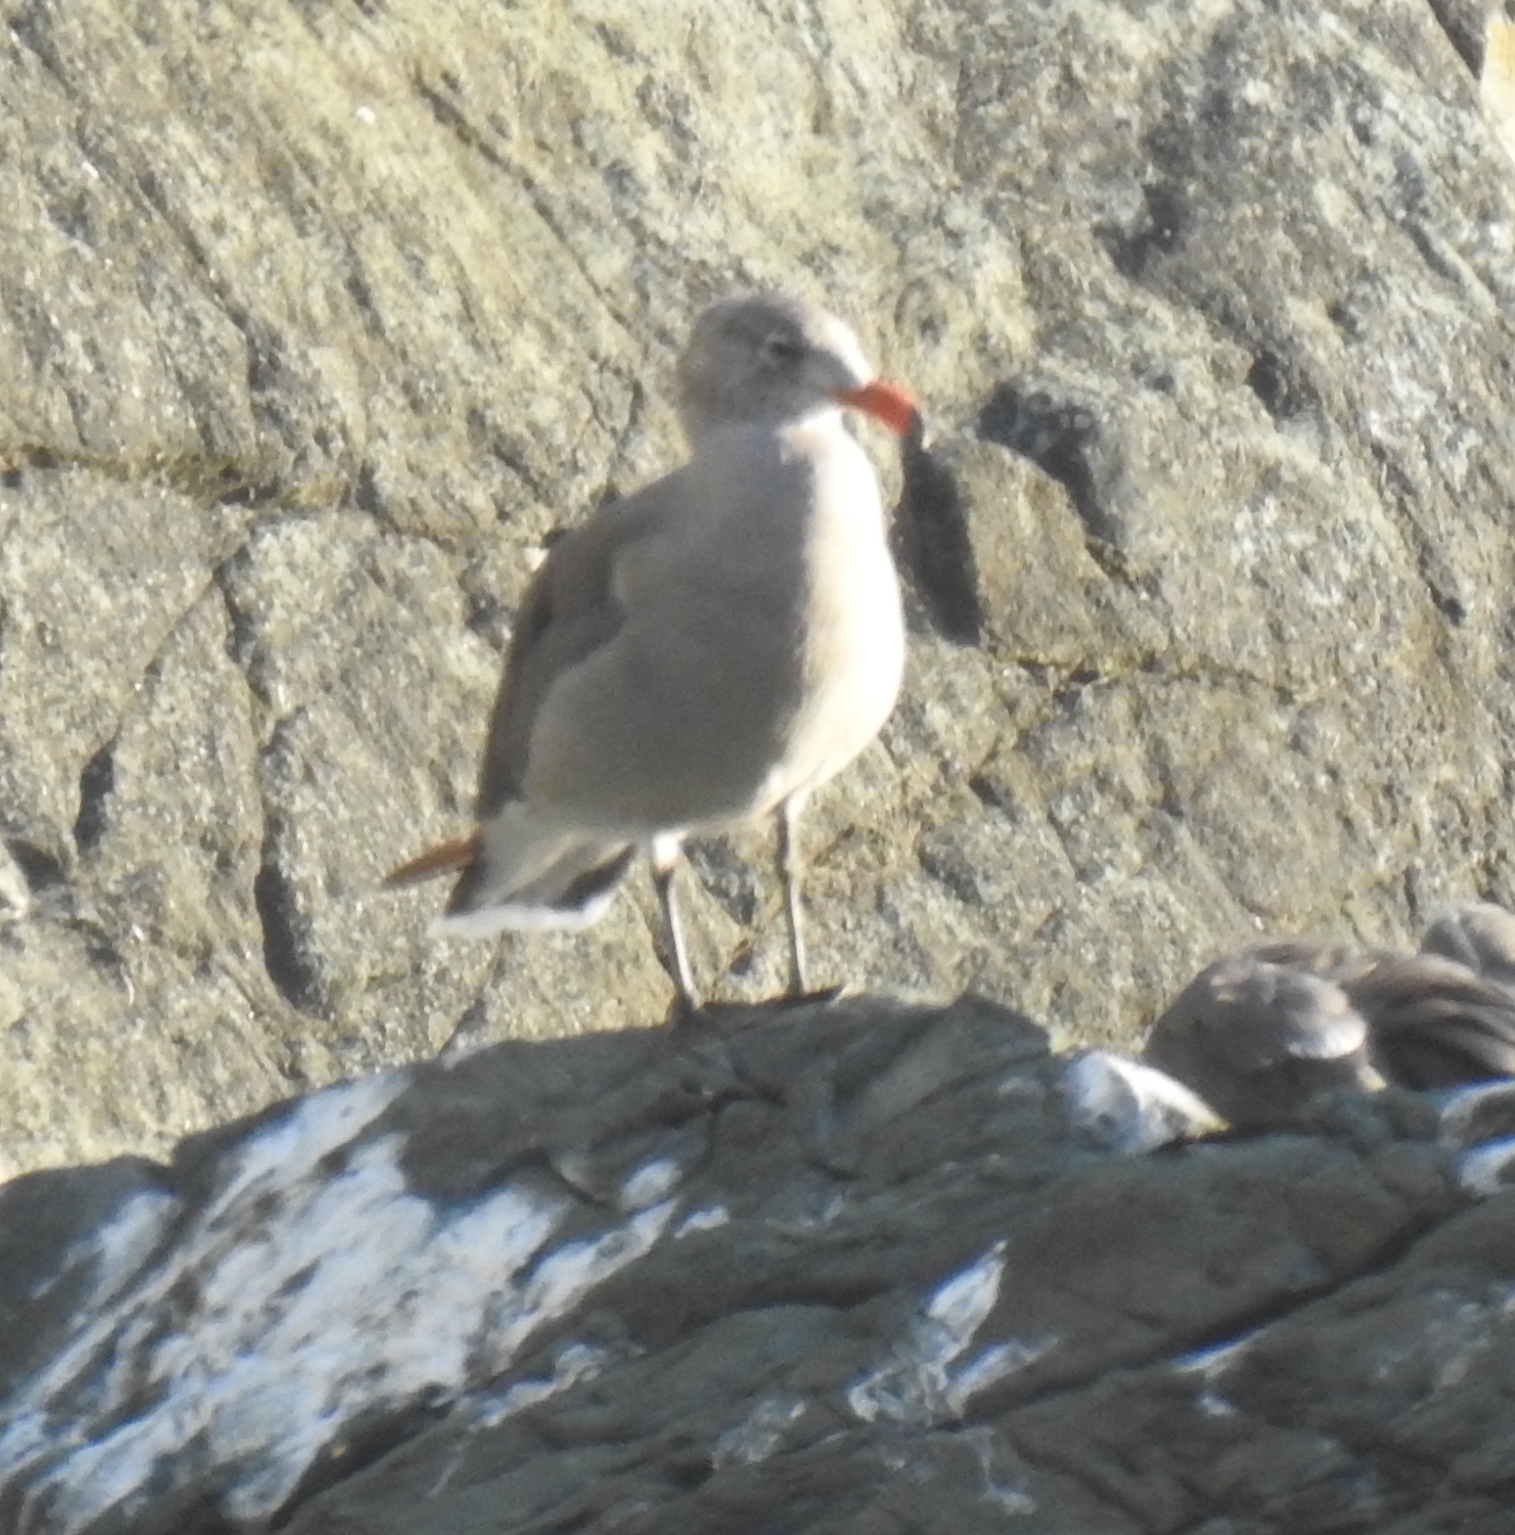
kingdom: Animalia
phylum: Chordata
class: Aves
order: Charadriiformes
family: Laridae
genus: Larus
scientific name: Larus heermanni
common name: Heermann's gull
